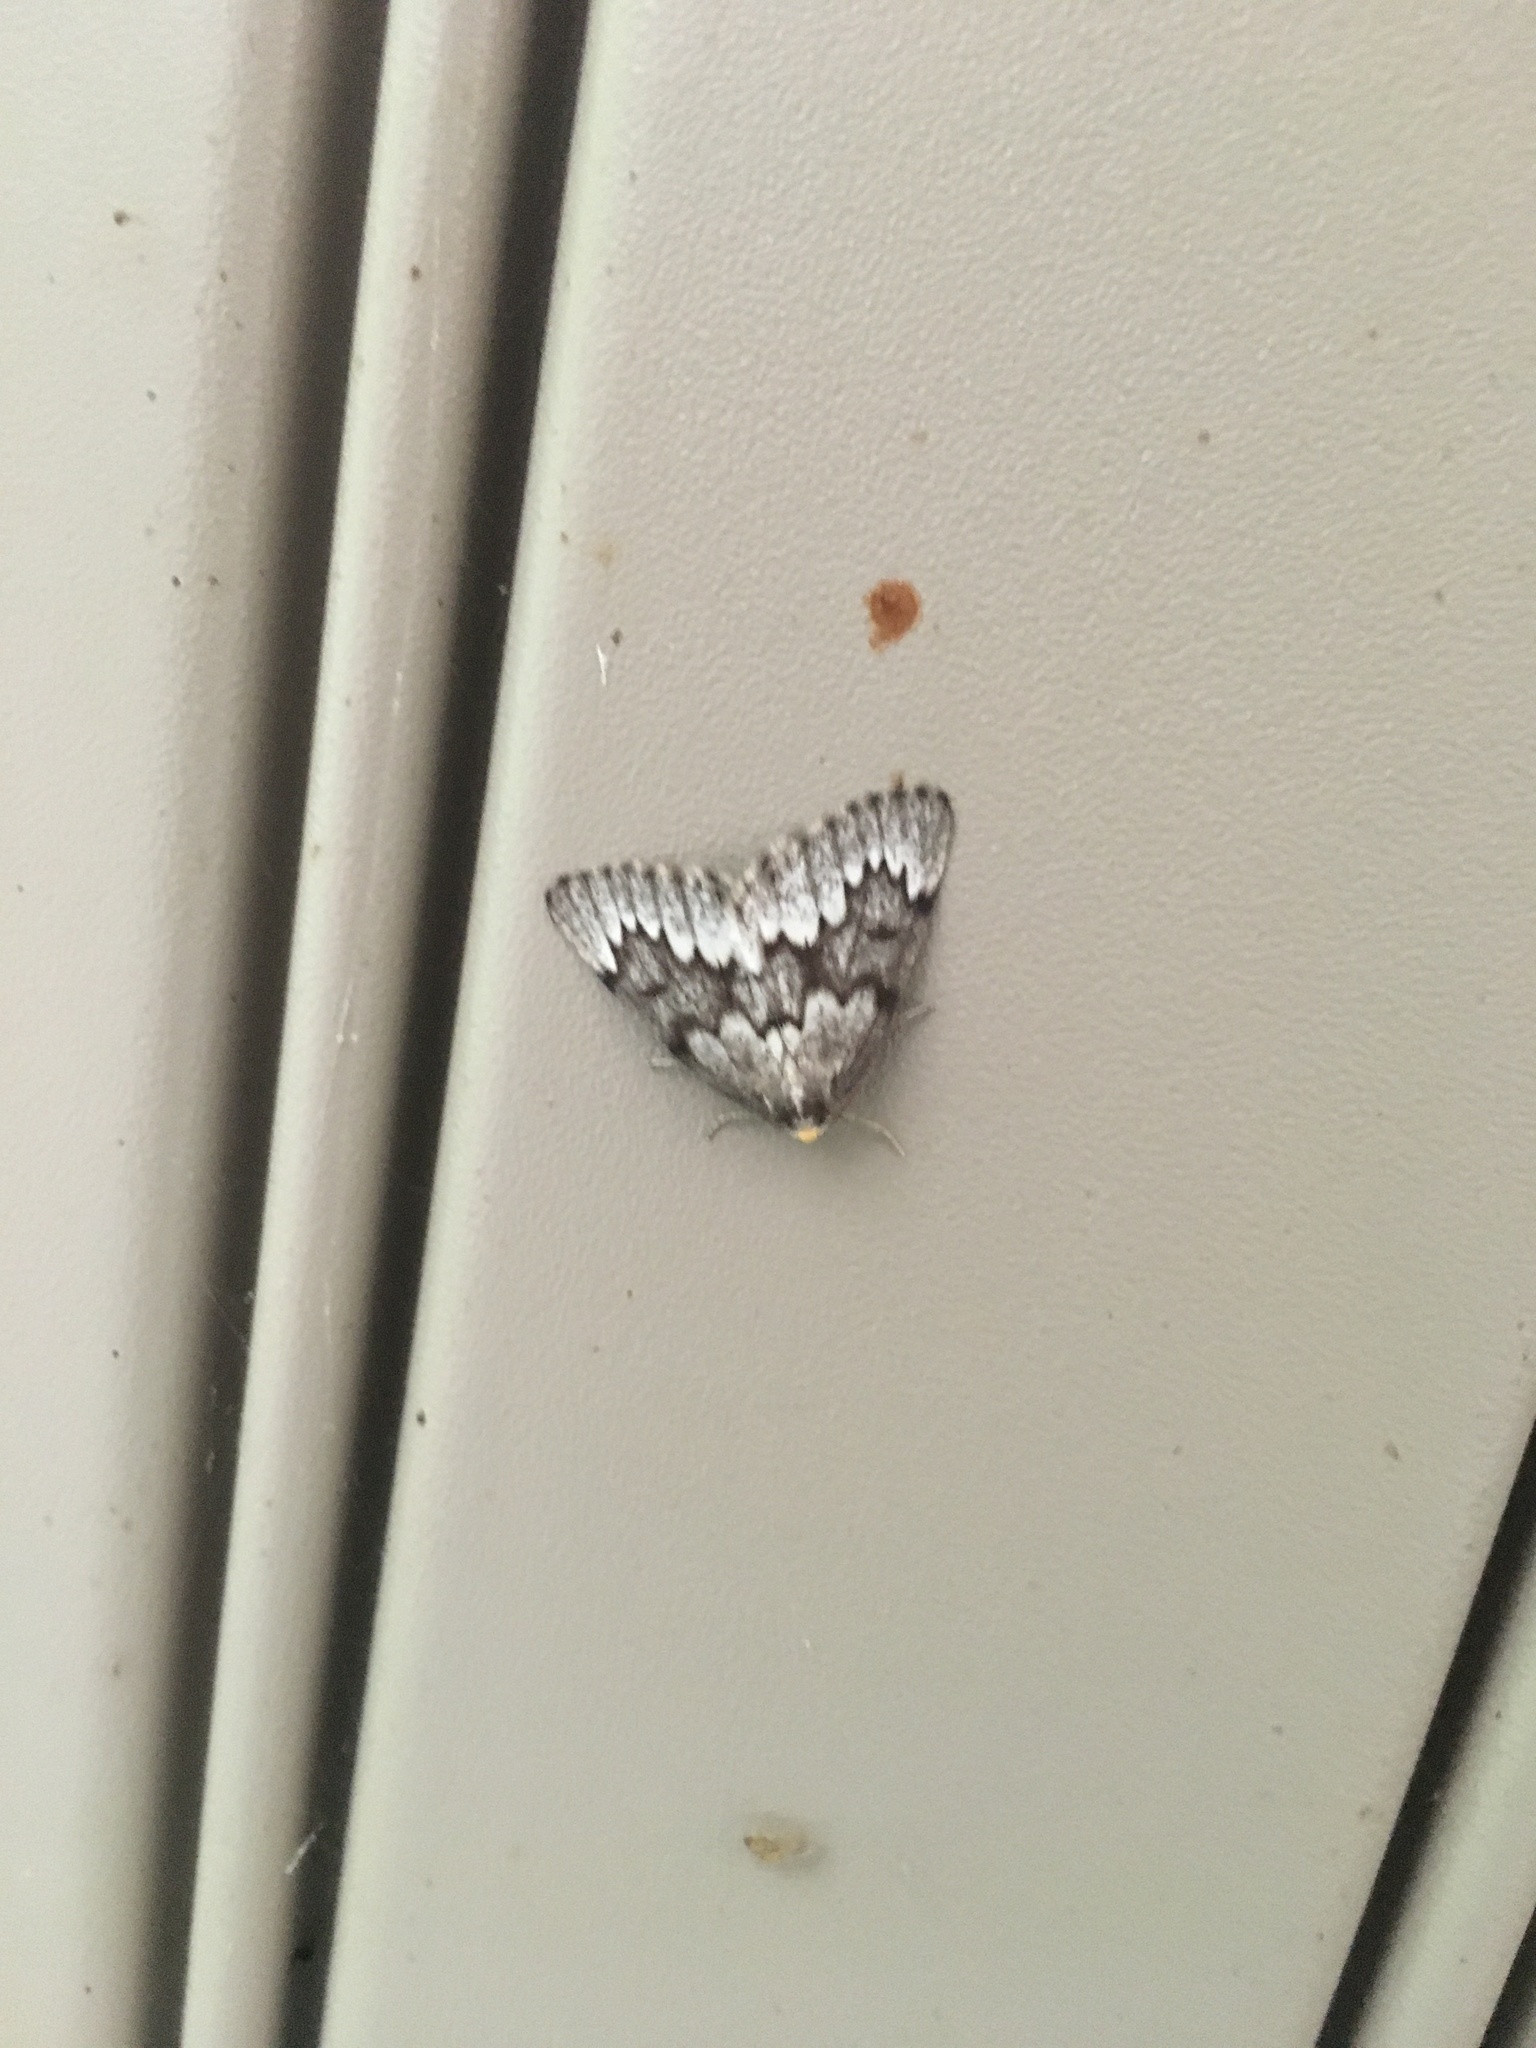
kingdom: Animalia
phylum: Arthropoda
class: Insecta
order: Lepidoptera
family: Geometridae
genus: Nepytia
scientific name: Nepytia canosaria
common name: False hemlock looper
